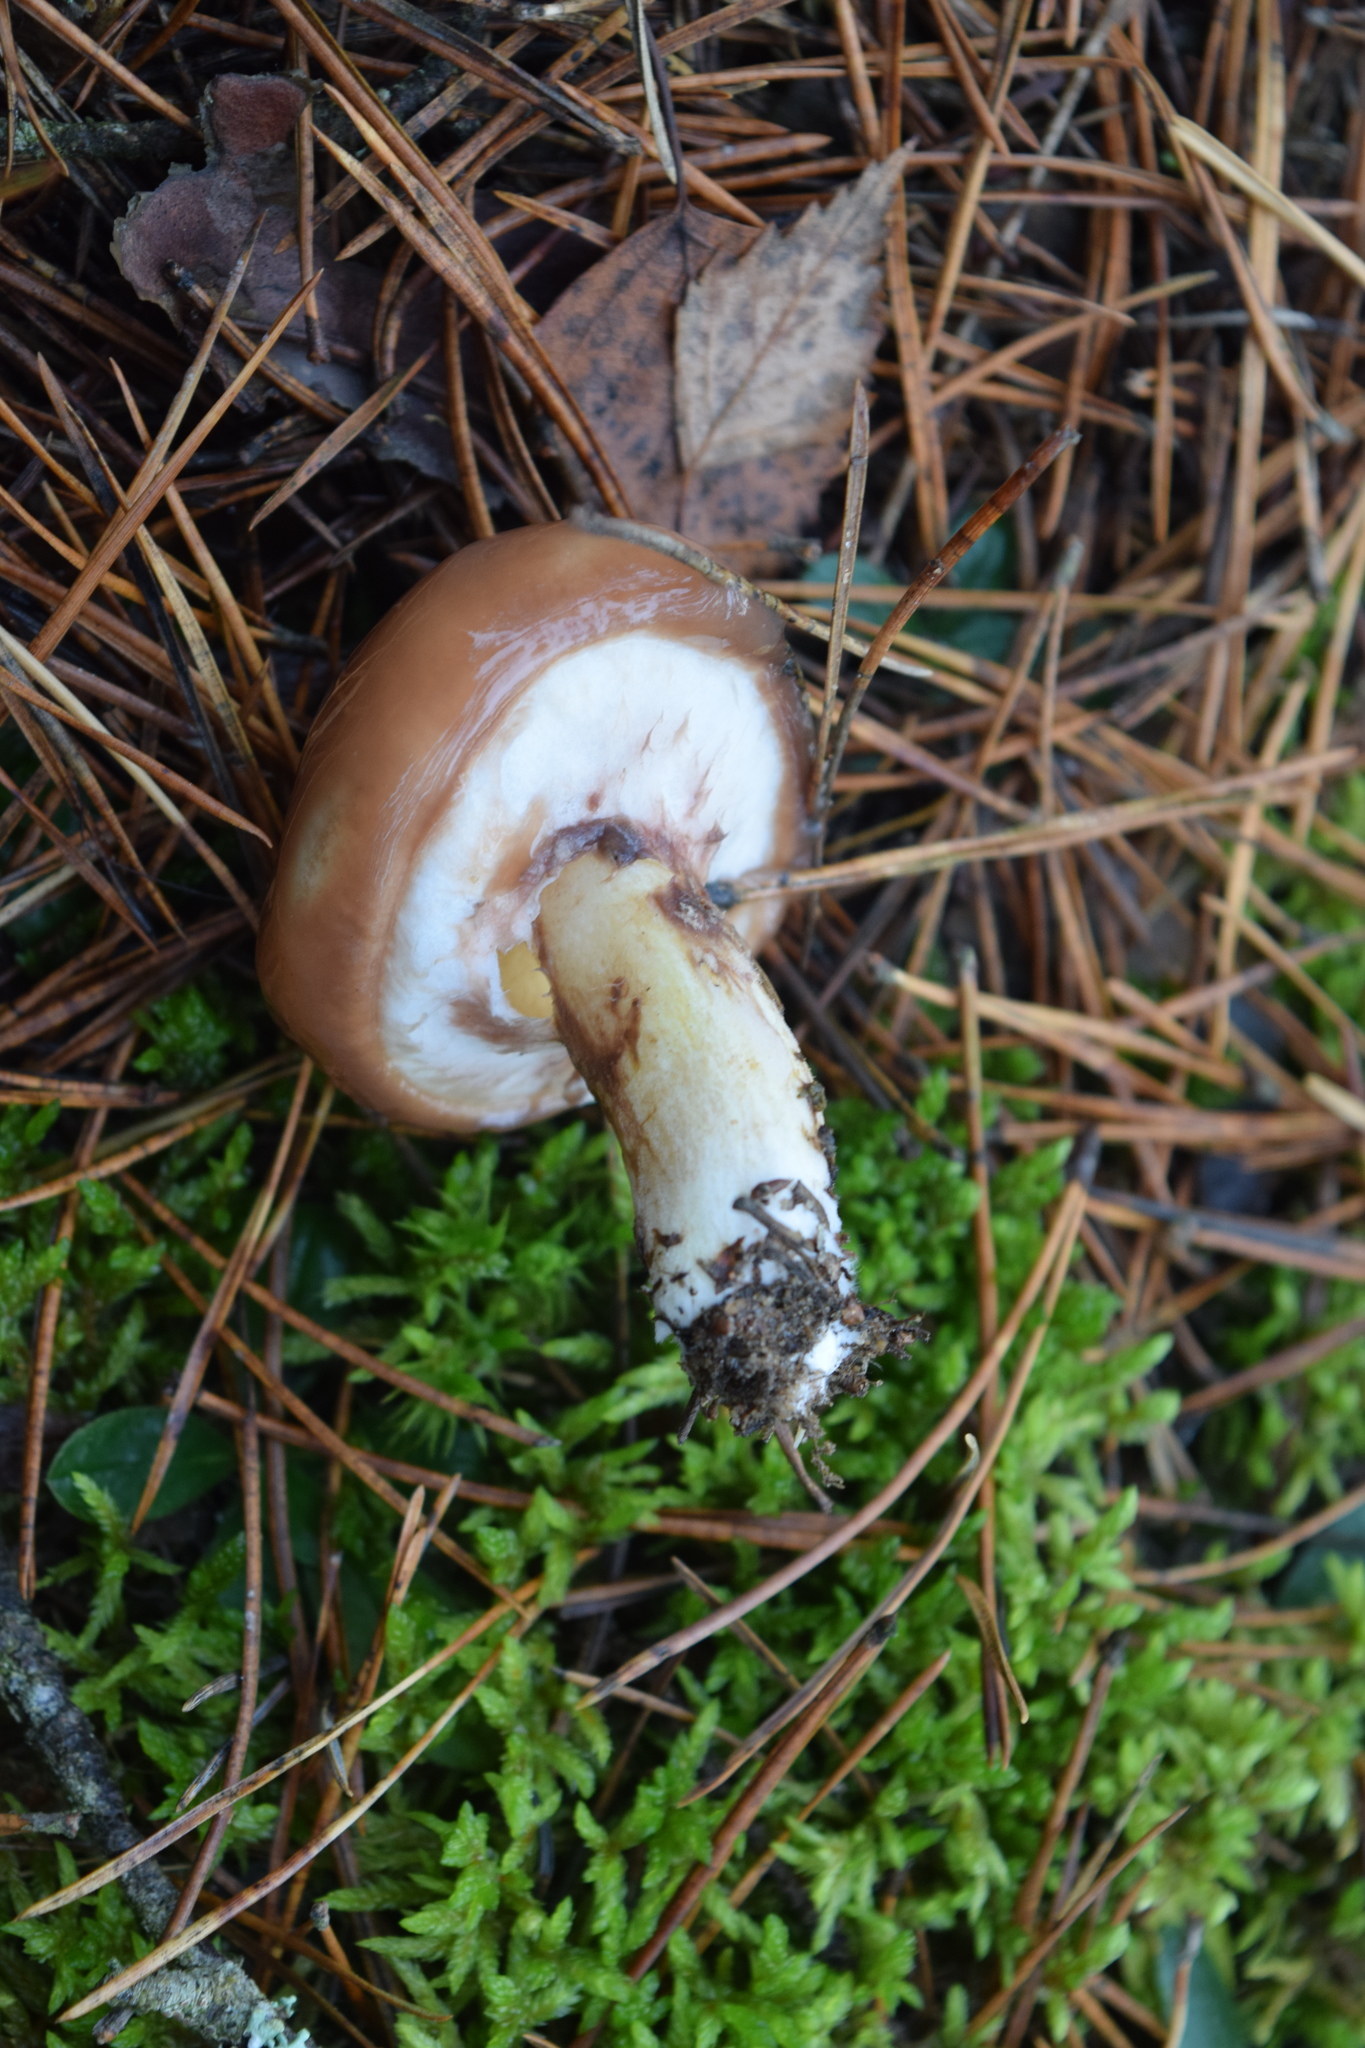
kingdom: Fungi
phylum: Basidiomycota
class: Agaricomycetes
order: Boletales
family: Suillaceae
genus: Suillus
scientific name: Suillus luteus
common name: Slippery jack
